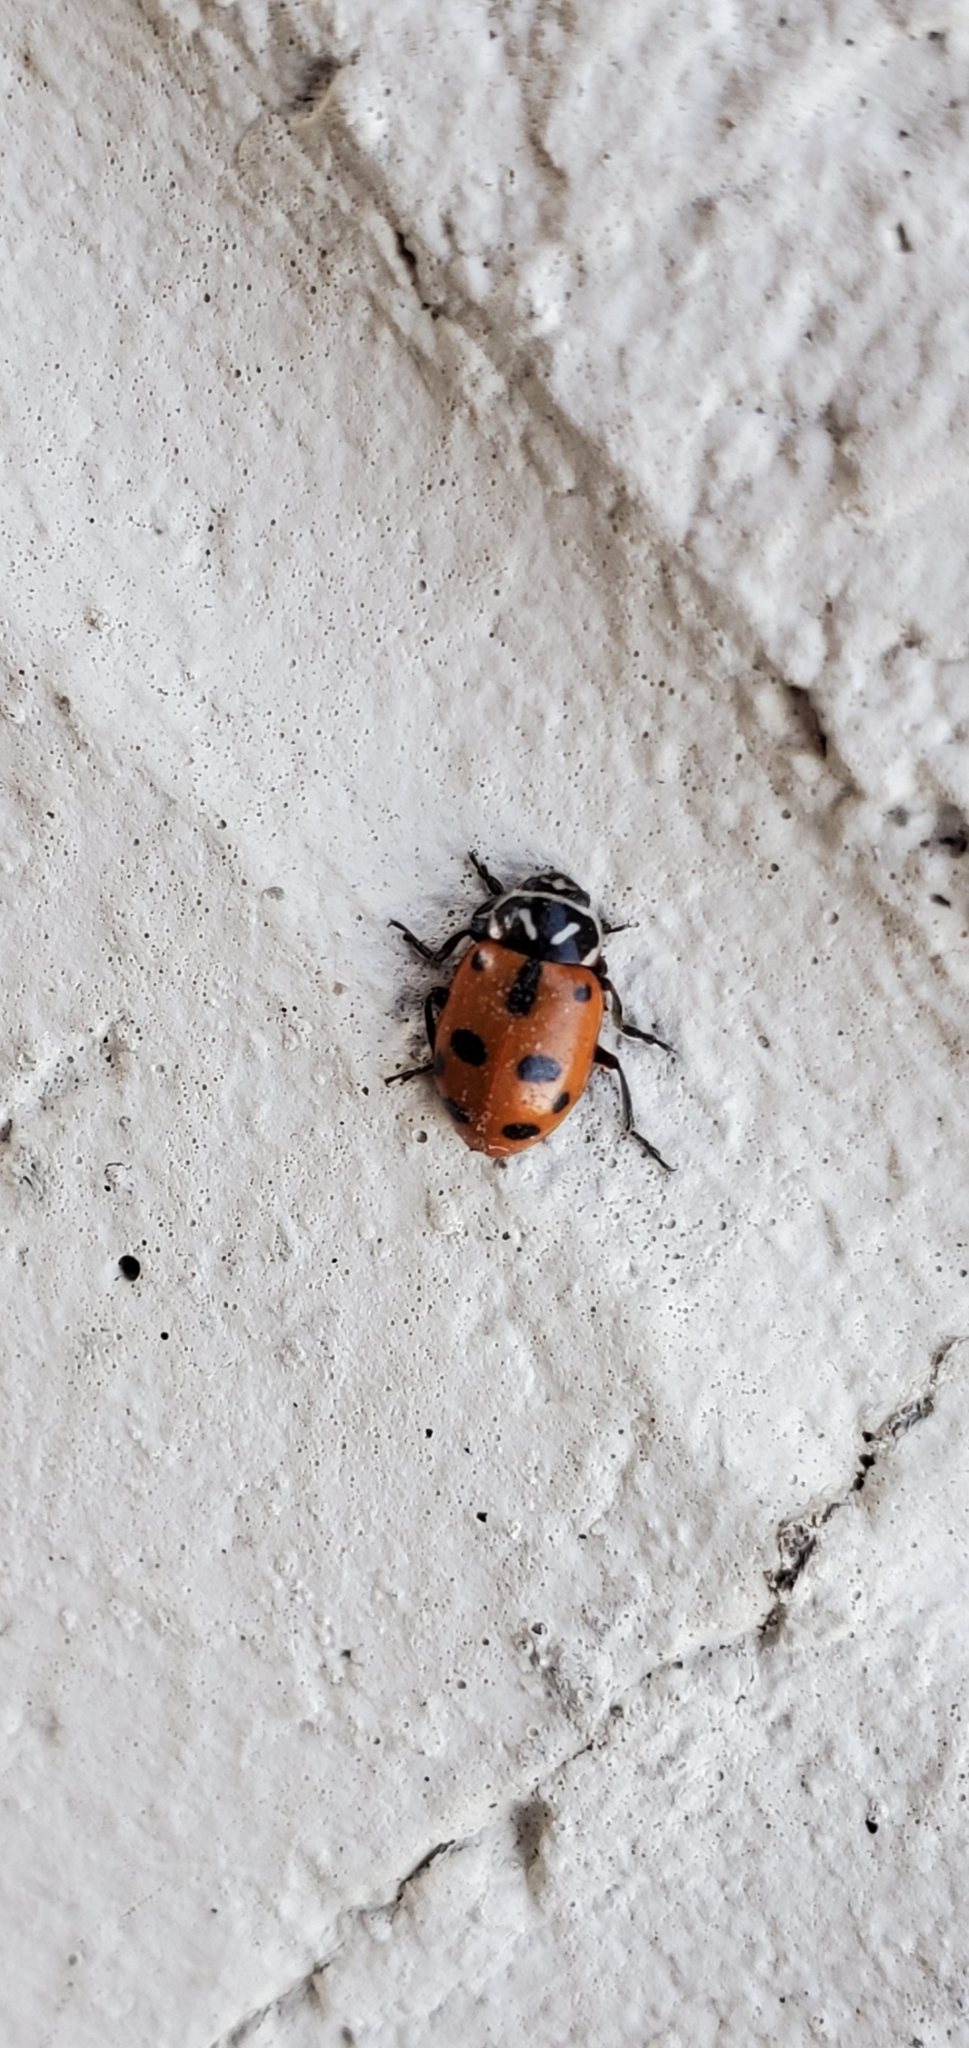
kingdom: Animalia
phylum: Arthropoda
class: Insecta
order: Coleoptera
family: Coccinellidae
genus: Hippodamia
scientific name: Hippodamia sinuata
